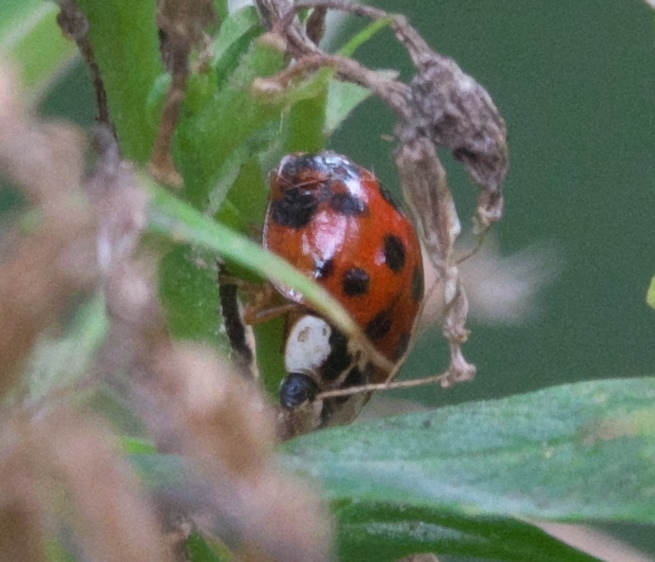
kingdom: Animalia
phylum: Arthropoda
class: Insecta
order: Coleoptera
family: Coccinellidae
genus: Harmonia
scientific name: Harmonia axyridis
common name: Harlequin ladybird
